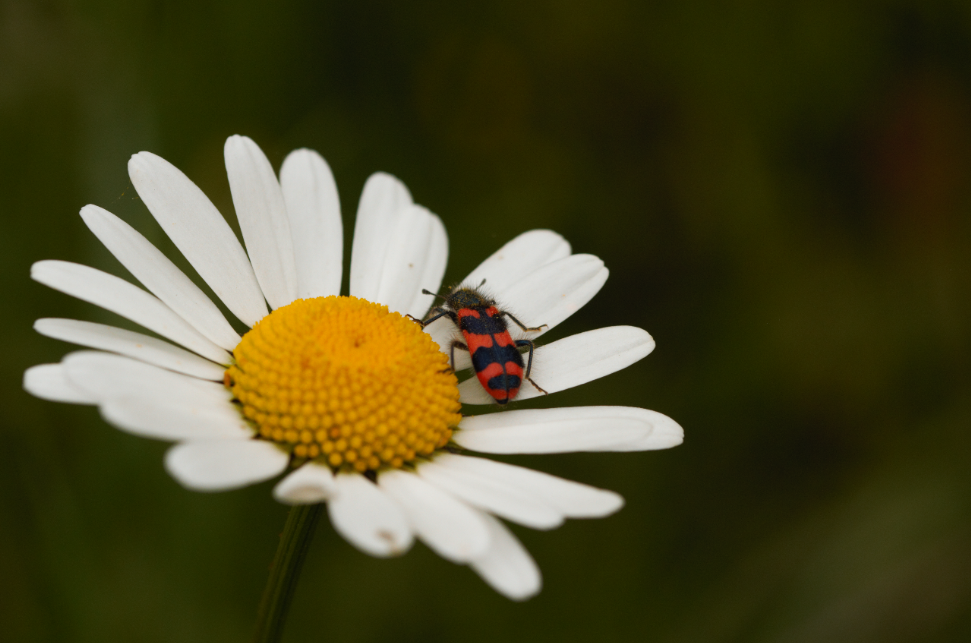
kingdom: Animalia
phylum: Arthropoda
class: Insecta
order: Coleoptera
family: Cleridae
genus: Trichodes
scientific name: Trichodes alvearius
